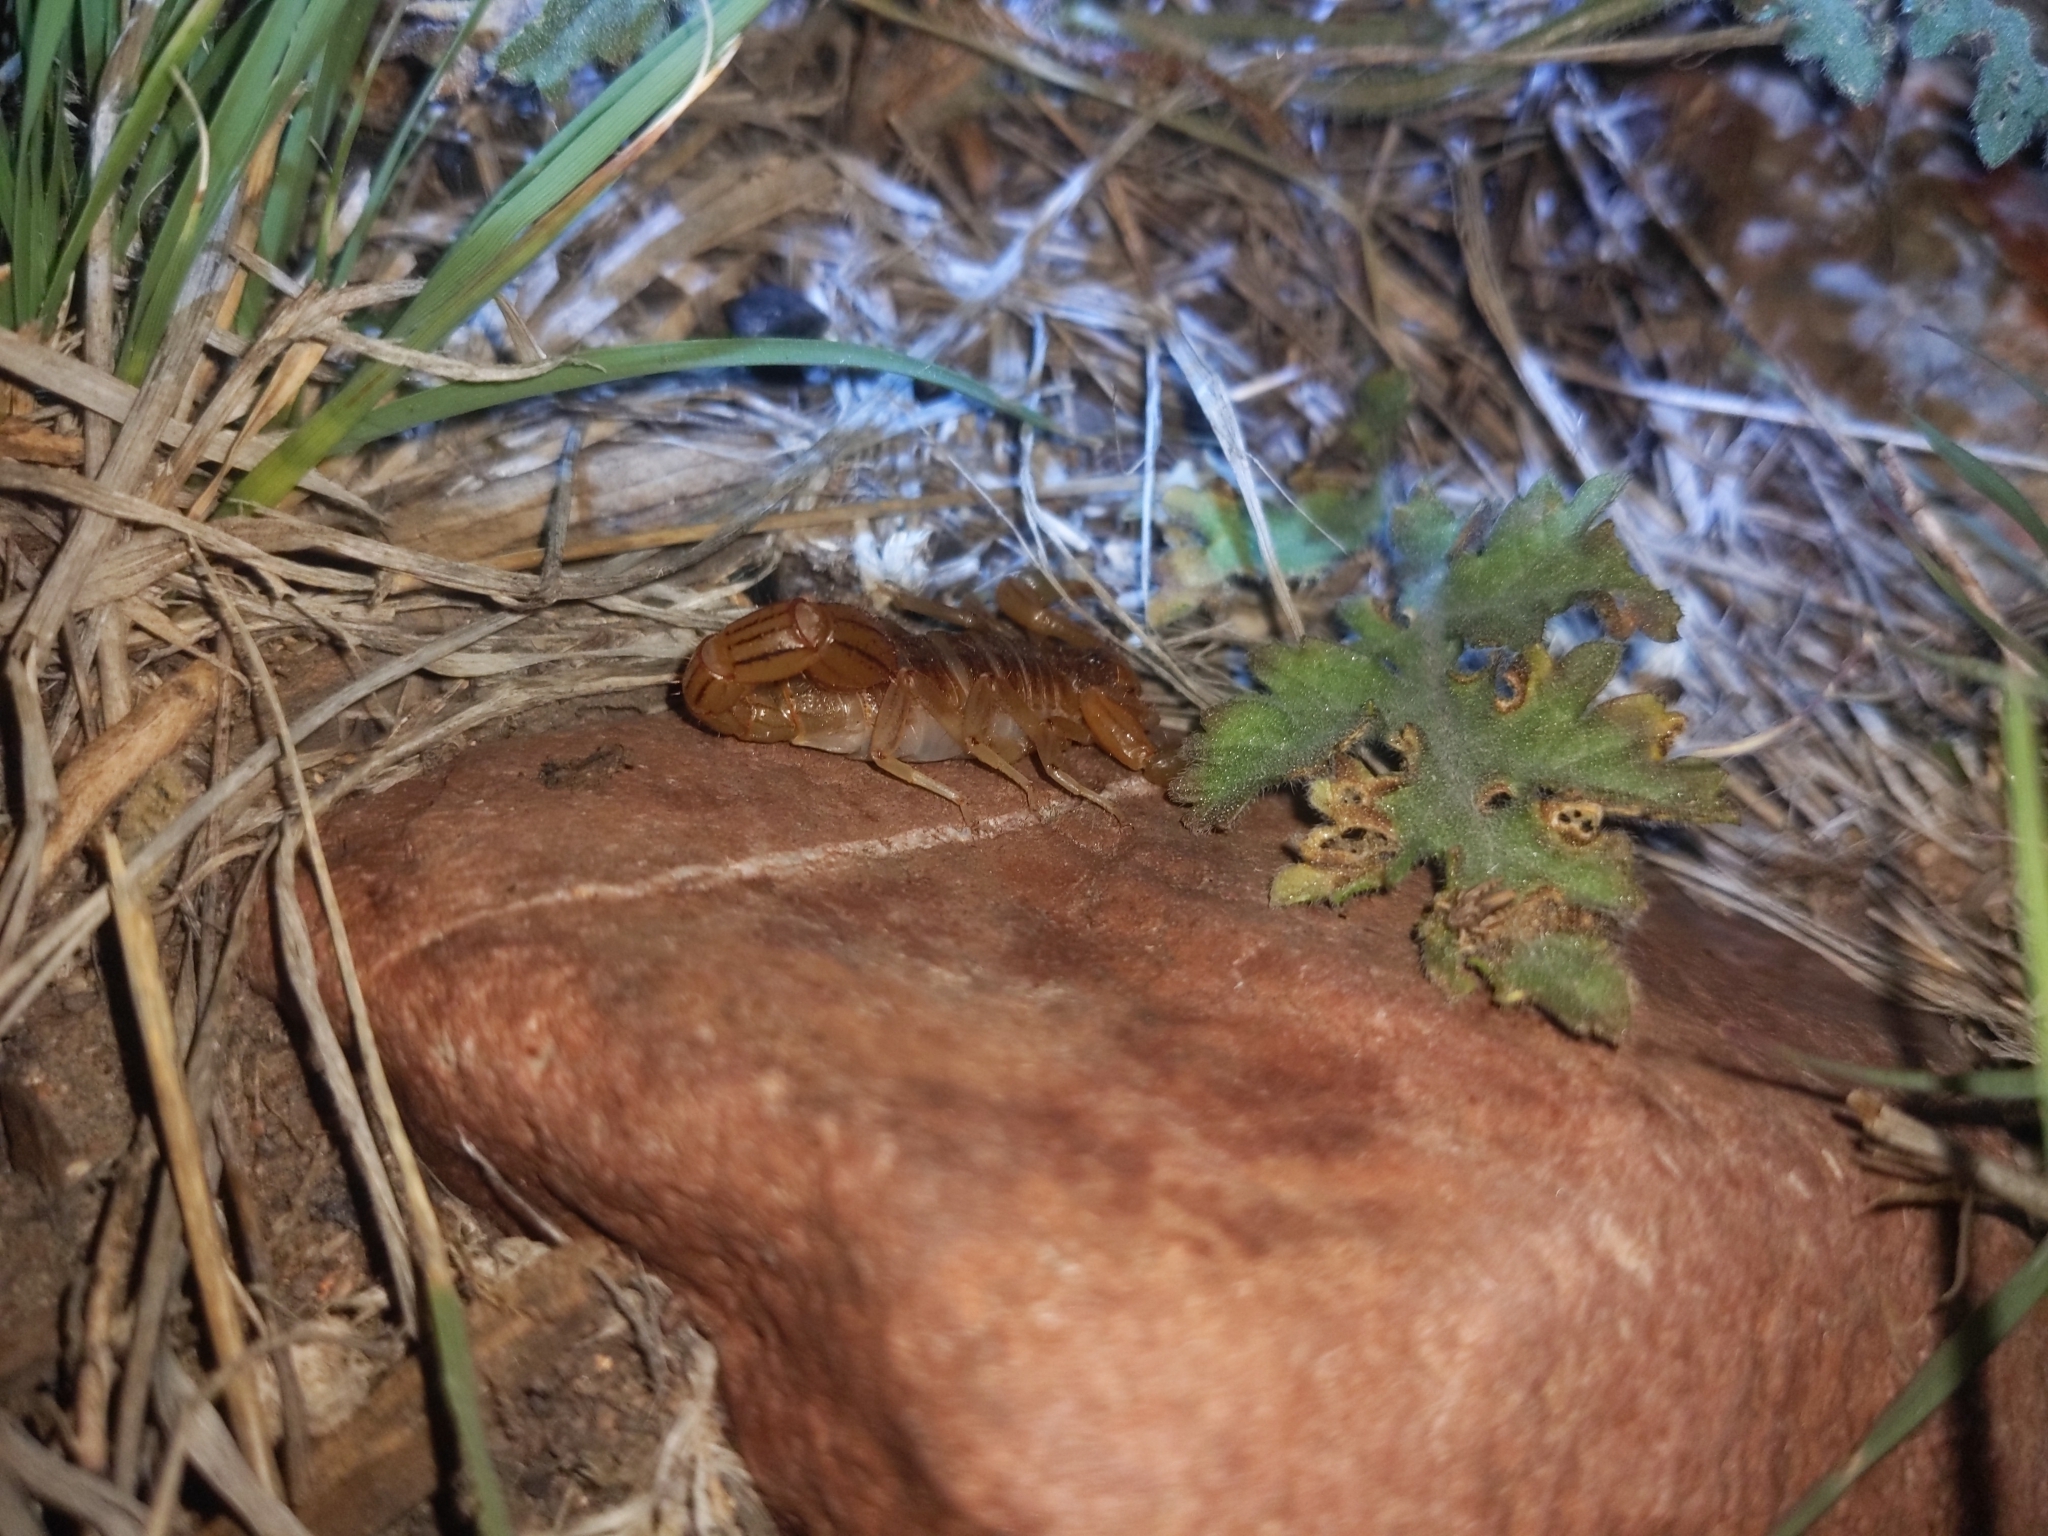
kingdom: Animalia
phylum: Arthropoda
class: Arachnida
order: Scorpiones
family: Vaejovidae
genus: Paravaejovis
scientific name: Paravaejovis spinigerus
